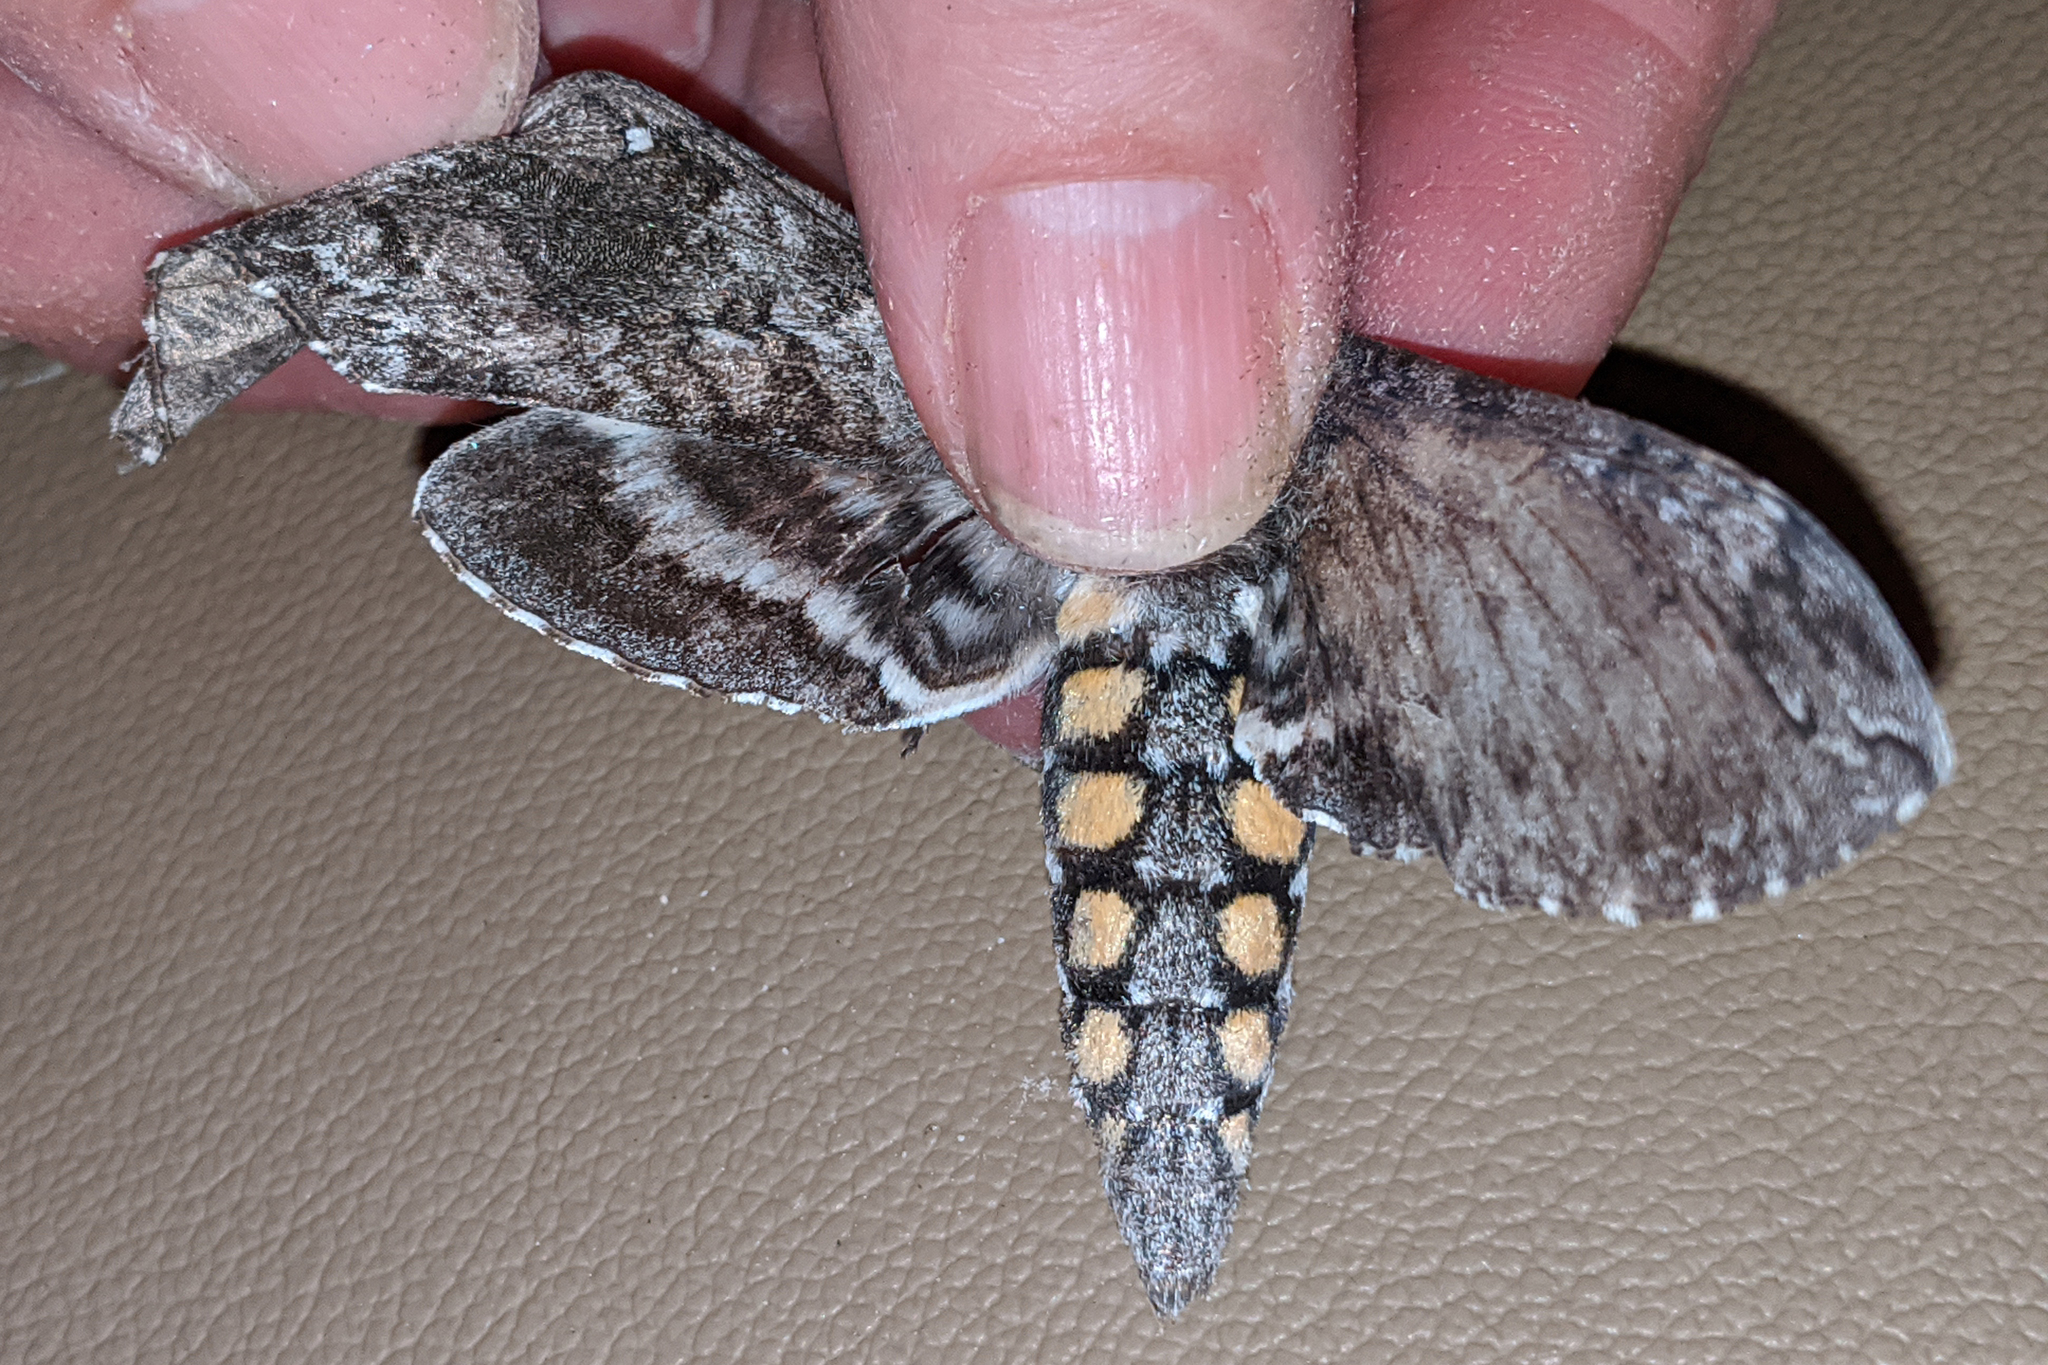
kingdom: Animalia
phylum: Arthropoda
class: Insecta
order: Lepidoptera
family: Sphingidae
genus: Manduca
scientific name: Manduca sexta
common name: Carolina sphinx
